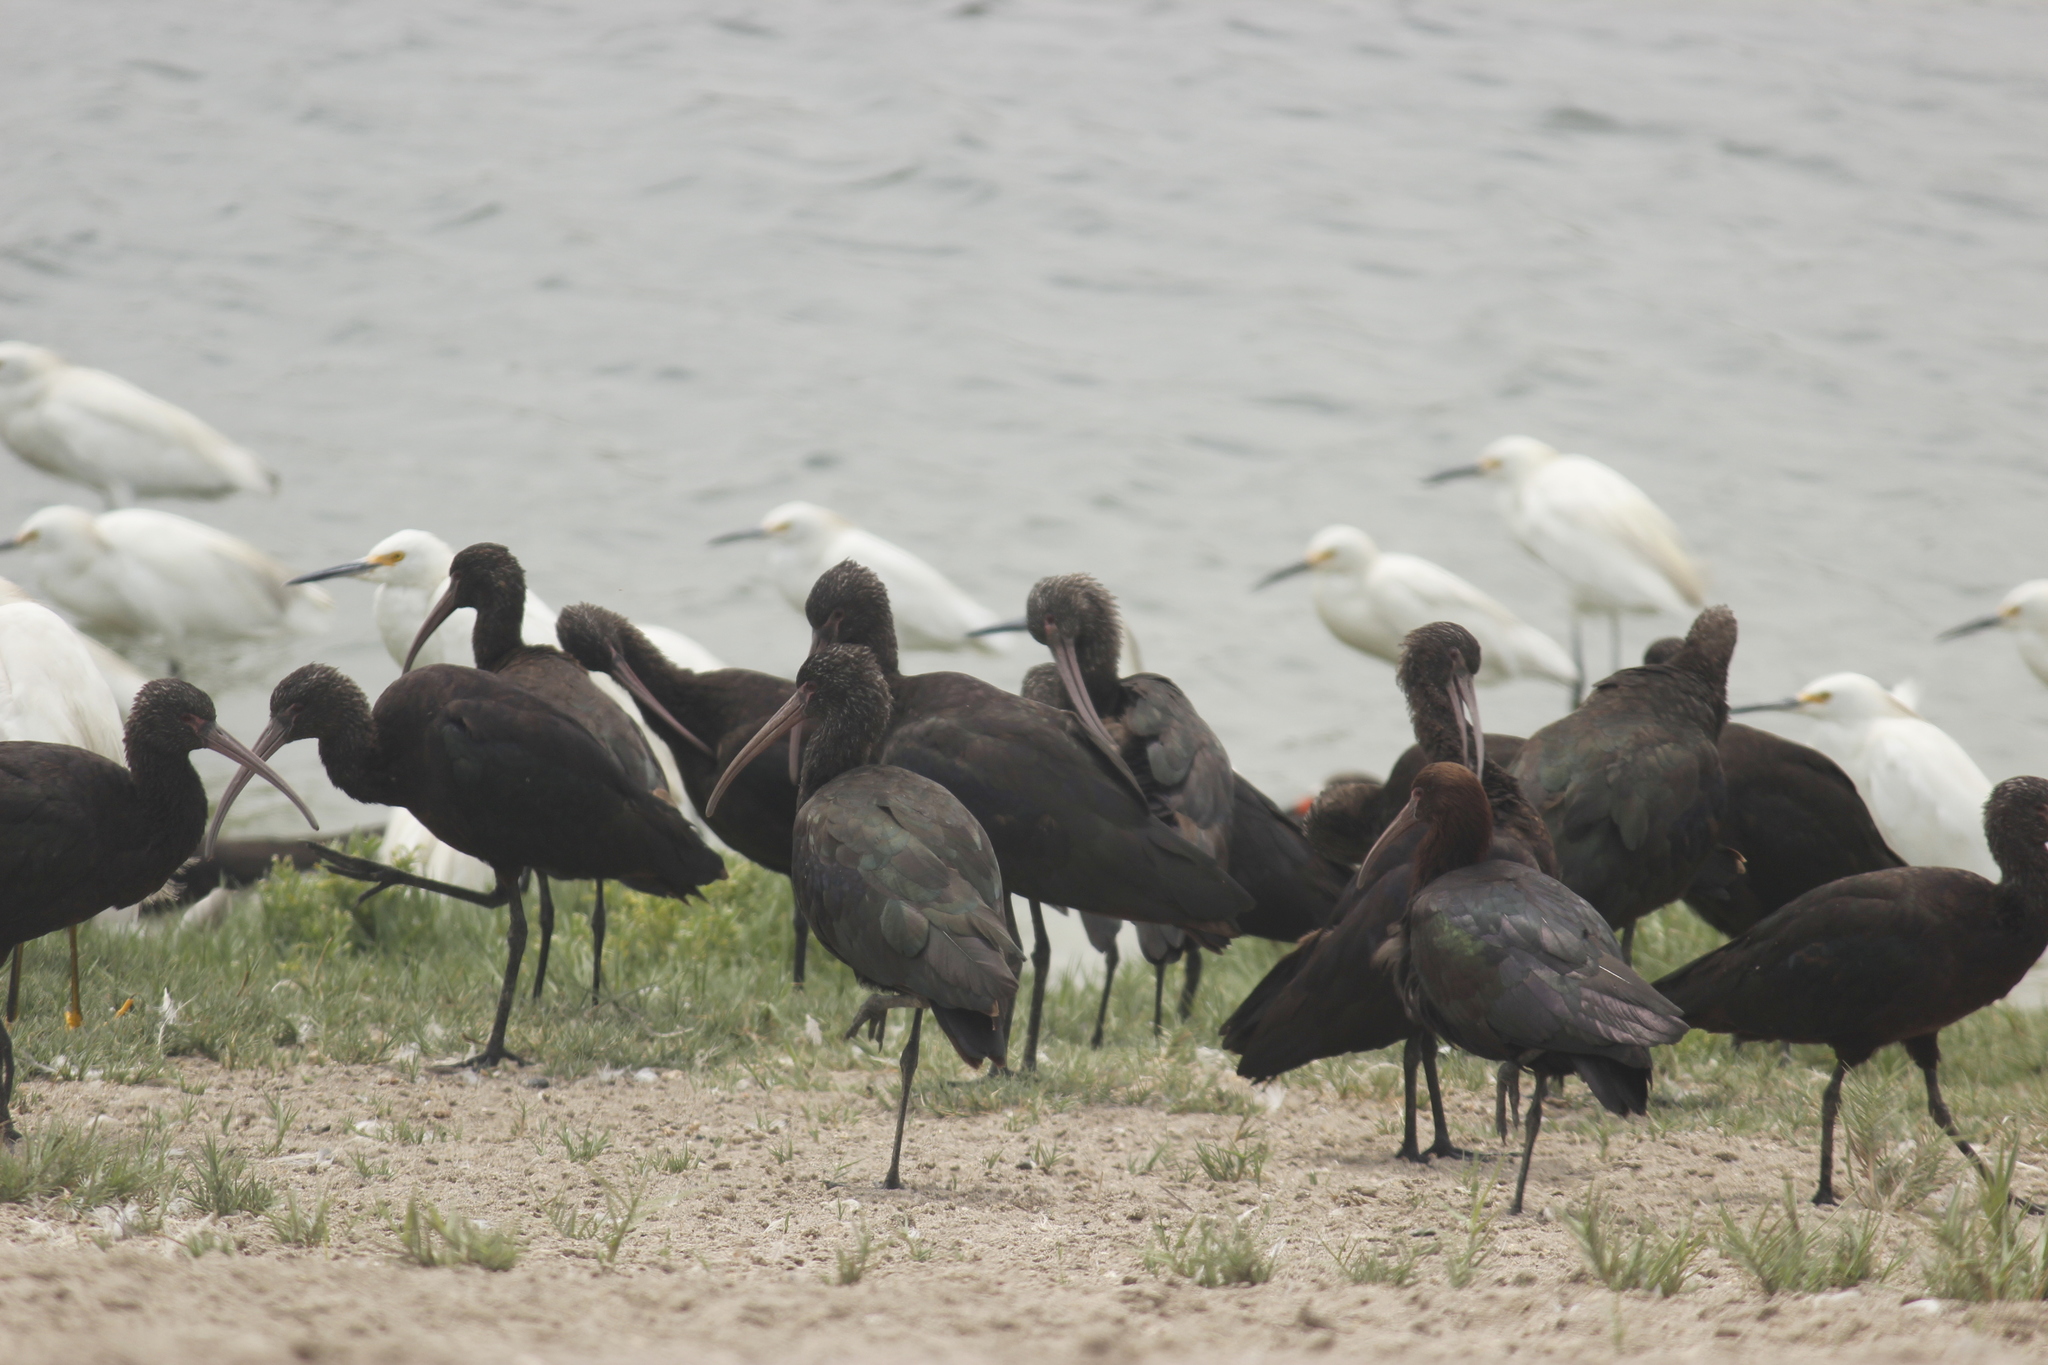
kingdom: Animalia
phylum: Chordata
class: Aves
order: Pelecaniformes
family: Threskiornithidae
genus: Plegadis
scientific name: Plegadis ridgwayi
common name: Puna ibis
